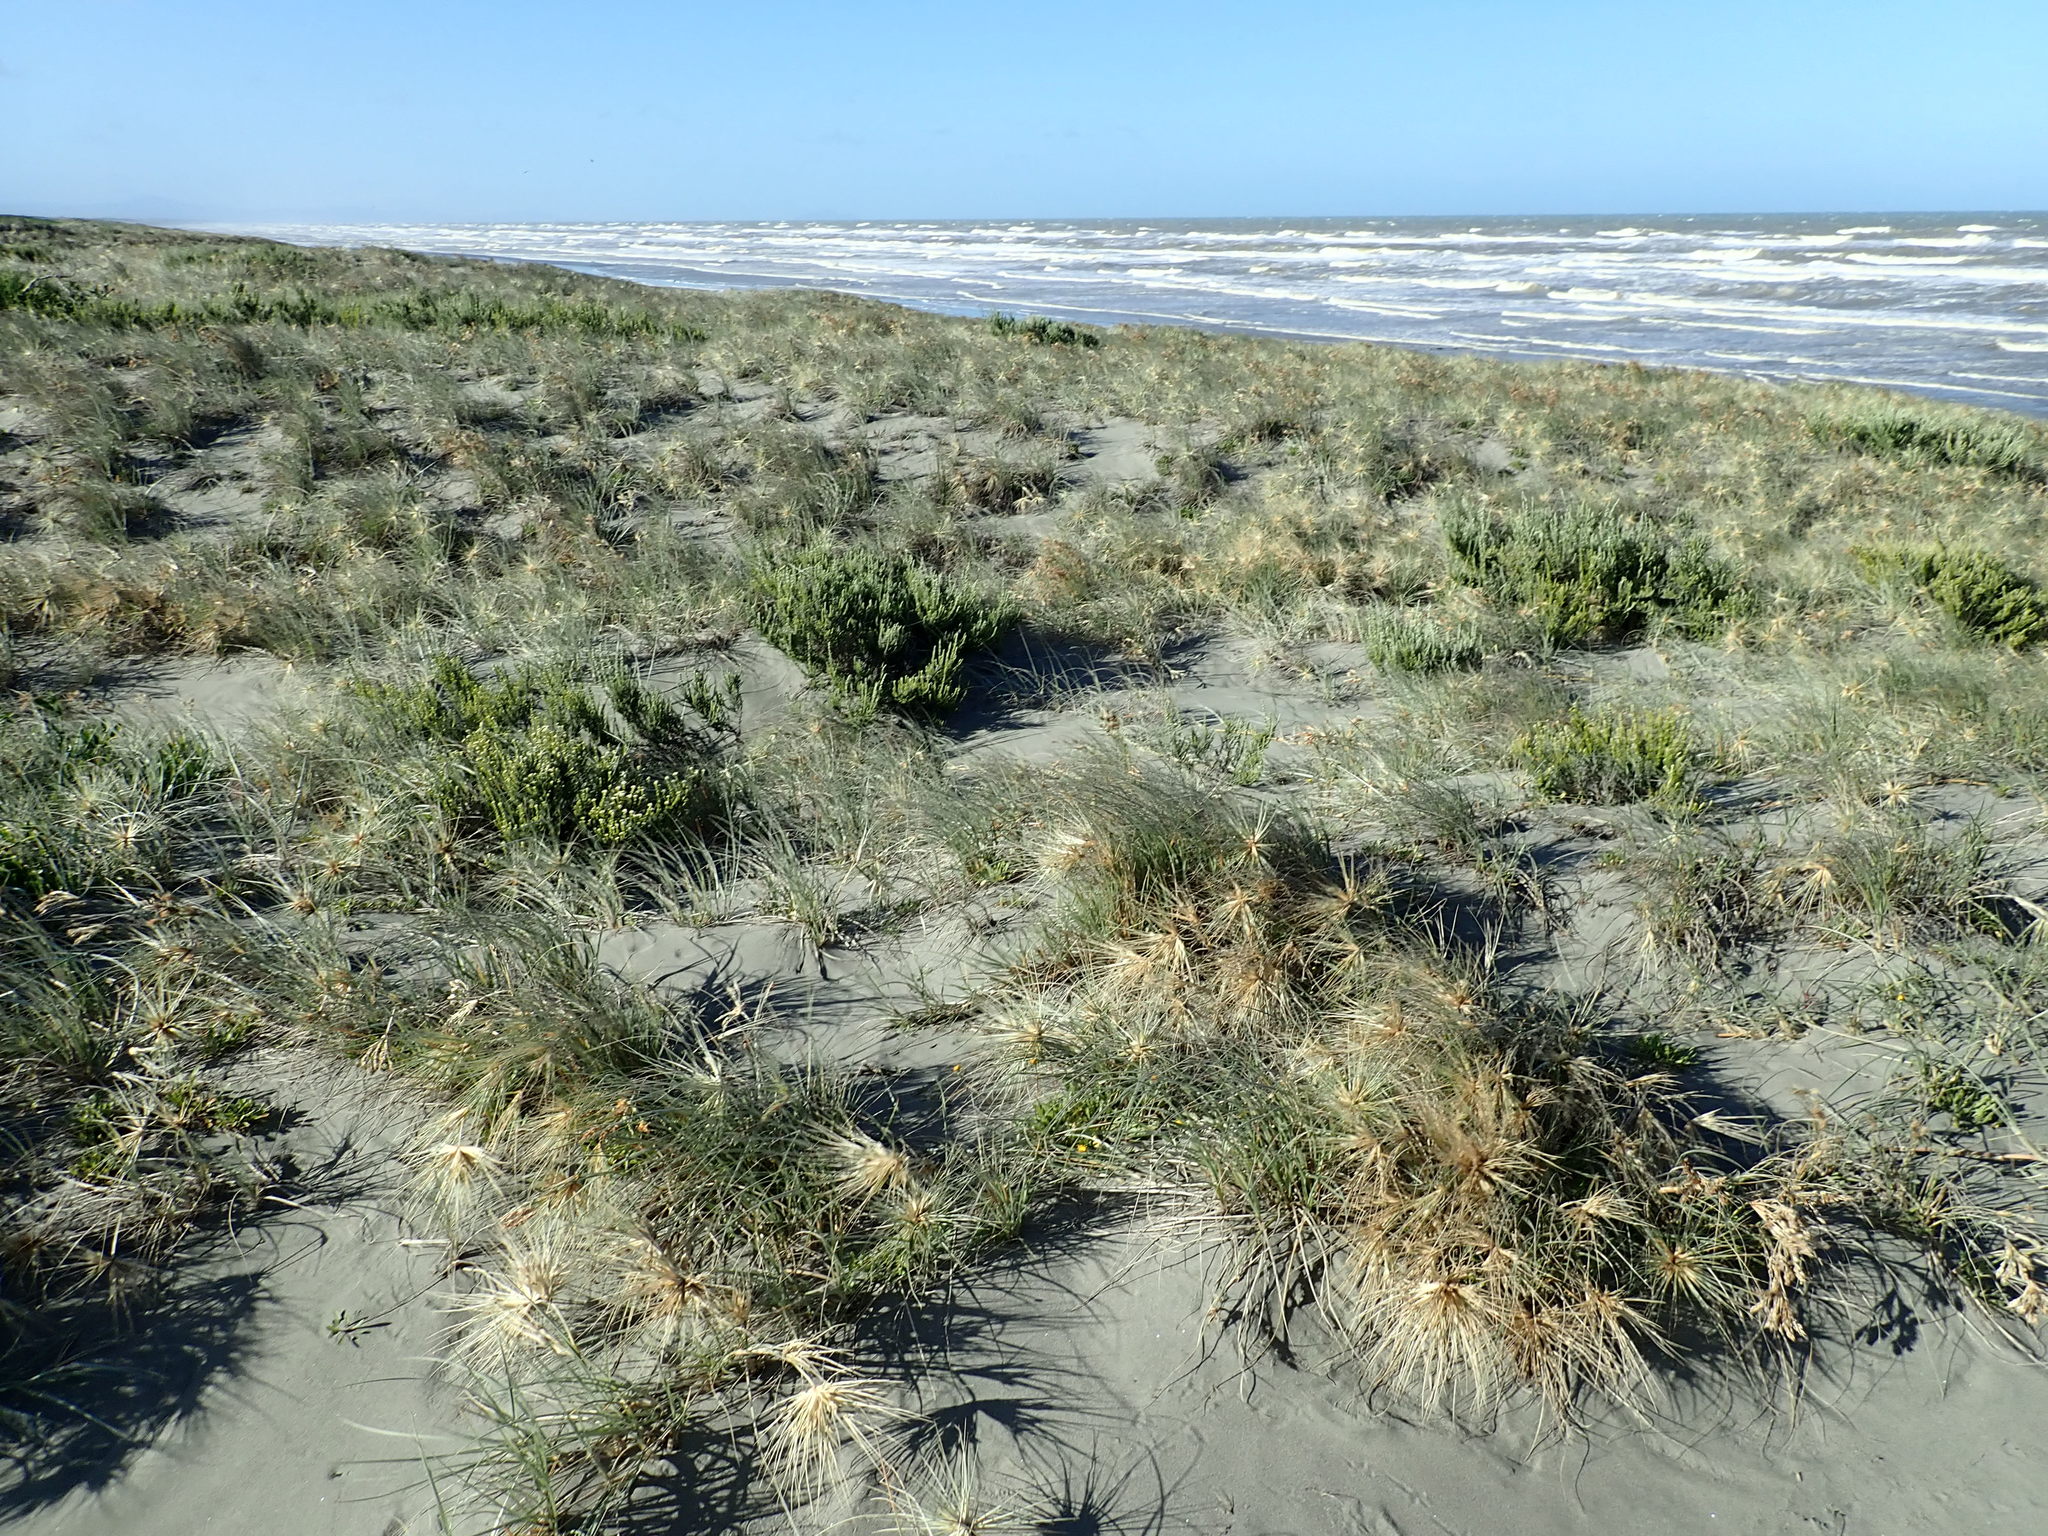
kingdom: Plantae
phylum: Tracheophyta
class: Magnoliopsida
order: Asterales
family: Asteraceae
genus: Ozothamnus
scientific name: Ozothamnus leptophyllus
